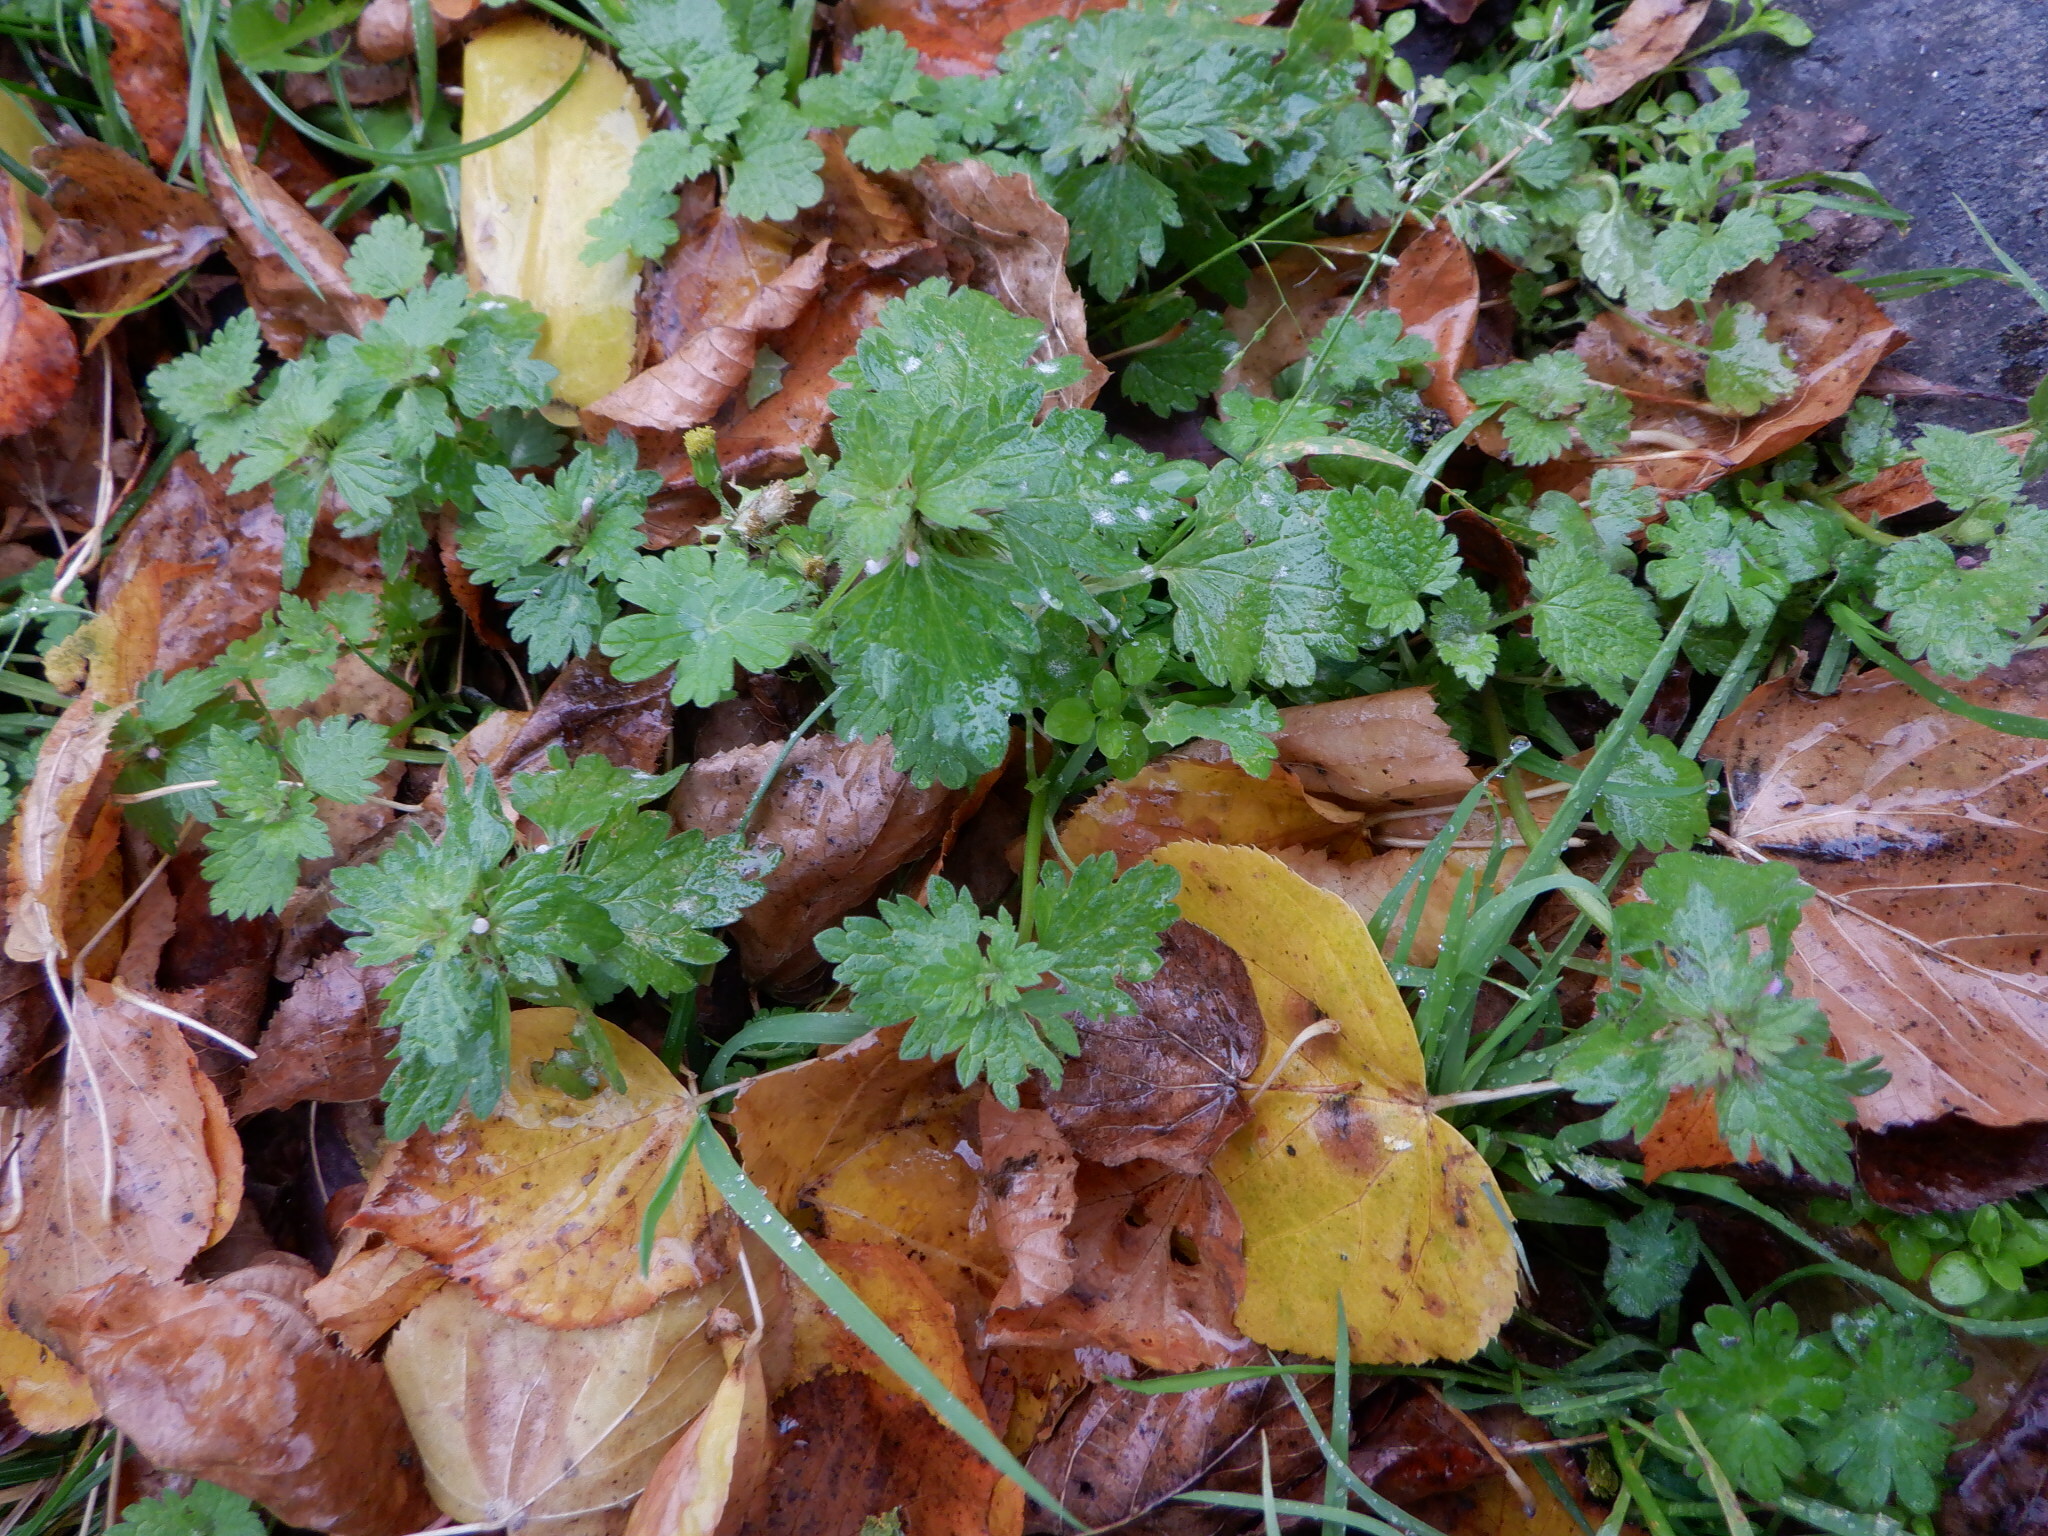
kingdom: Plantae
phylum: Tracheophyta
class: Magnoliopsida
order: Lamiales
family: Lamiaceae
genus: Lamium
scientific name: Lamium hybridum
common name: Cut-leaved dead-nettle
